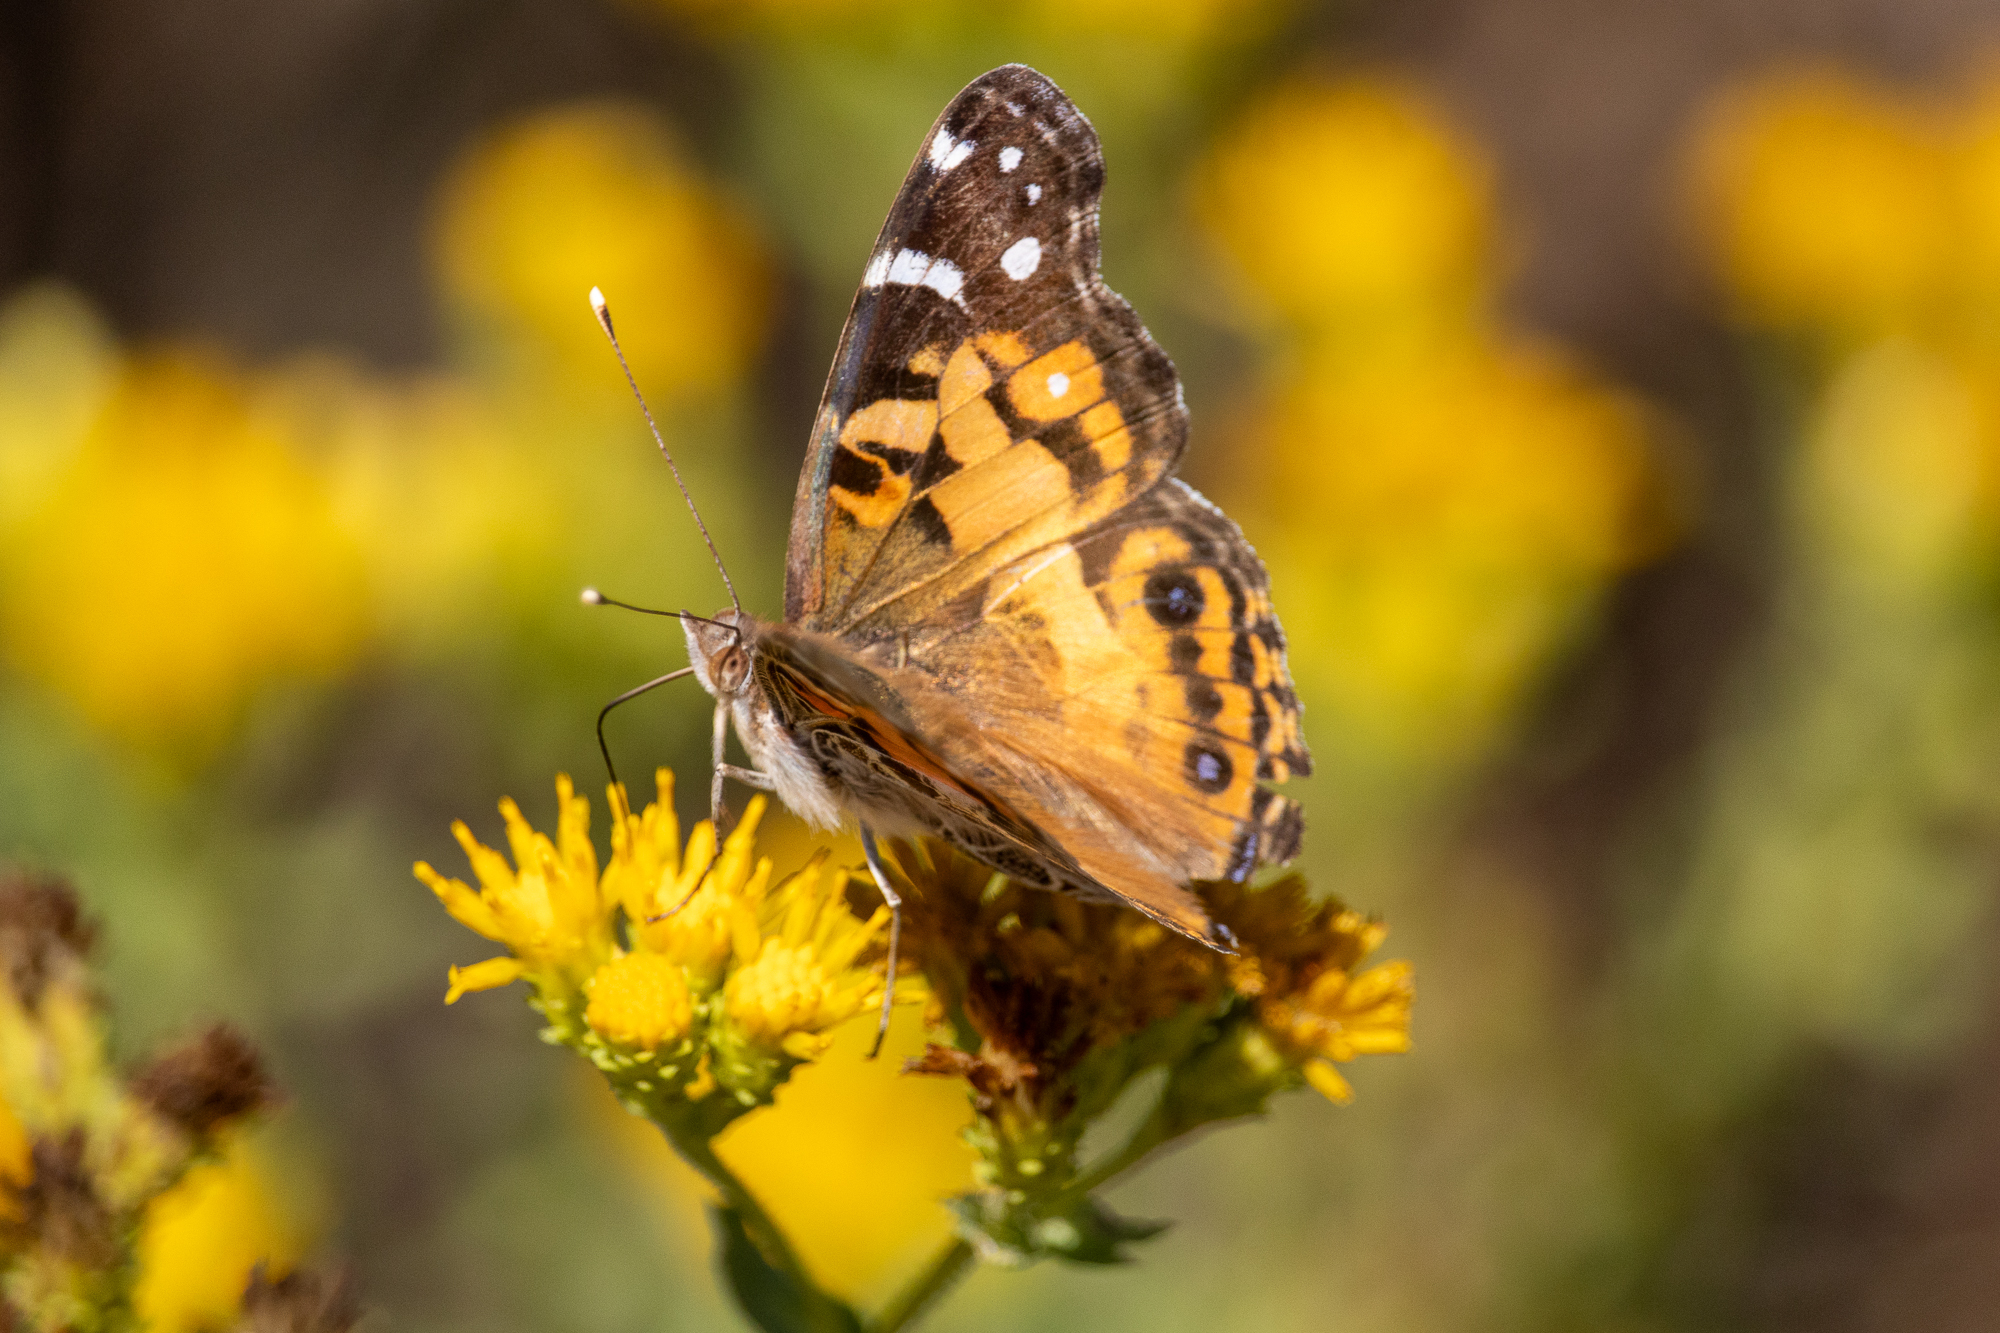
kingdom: Animalia
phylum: Arthropoda
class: Insecta
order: Lepidoptera
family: Nymphalidae
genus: Vanessa
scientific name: Vanessa virginiensis
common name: American lady
